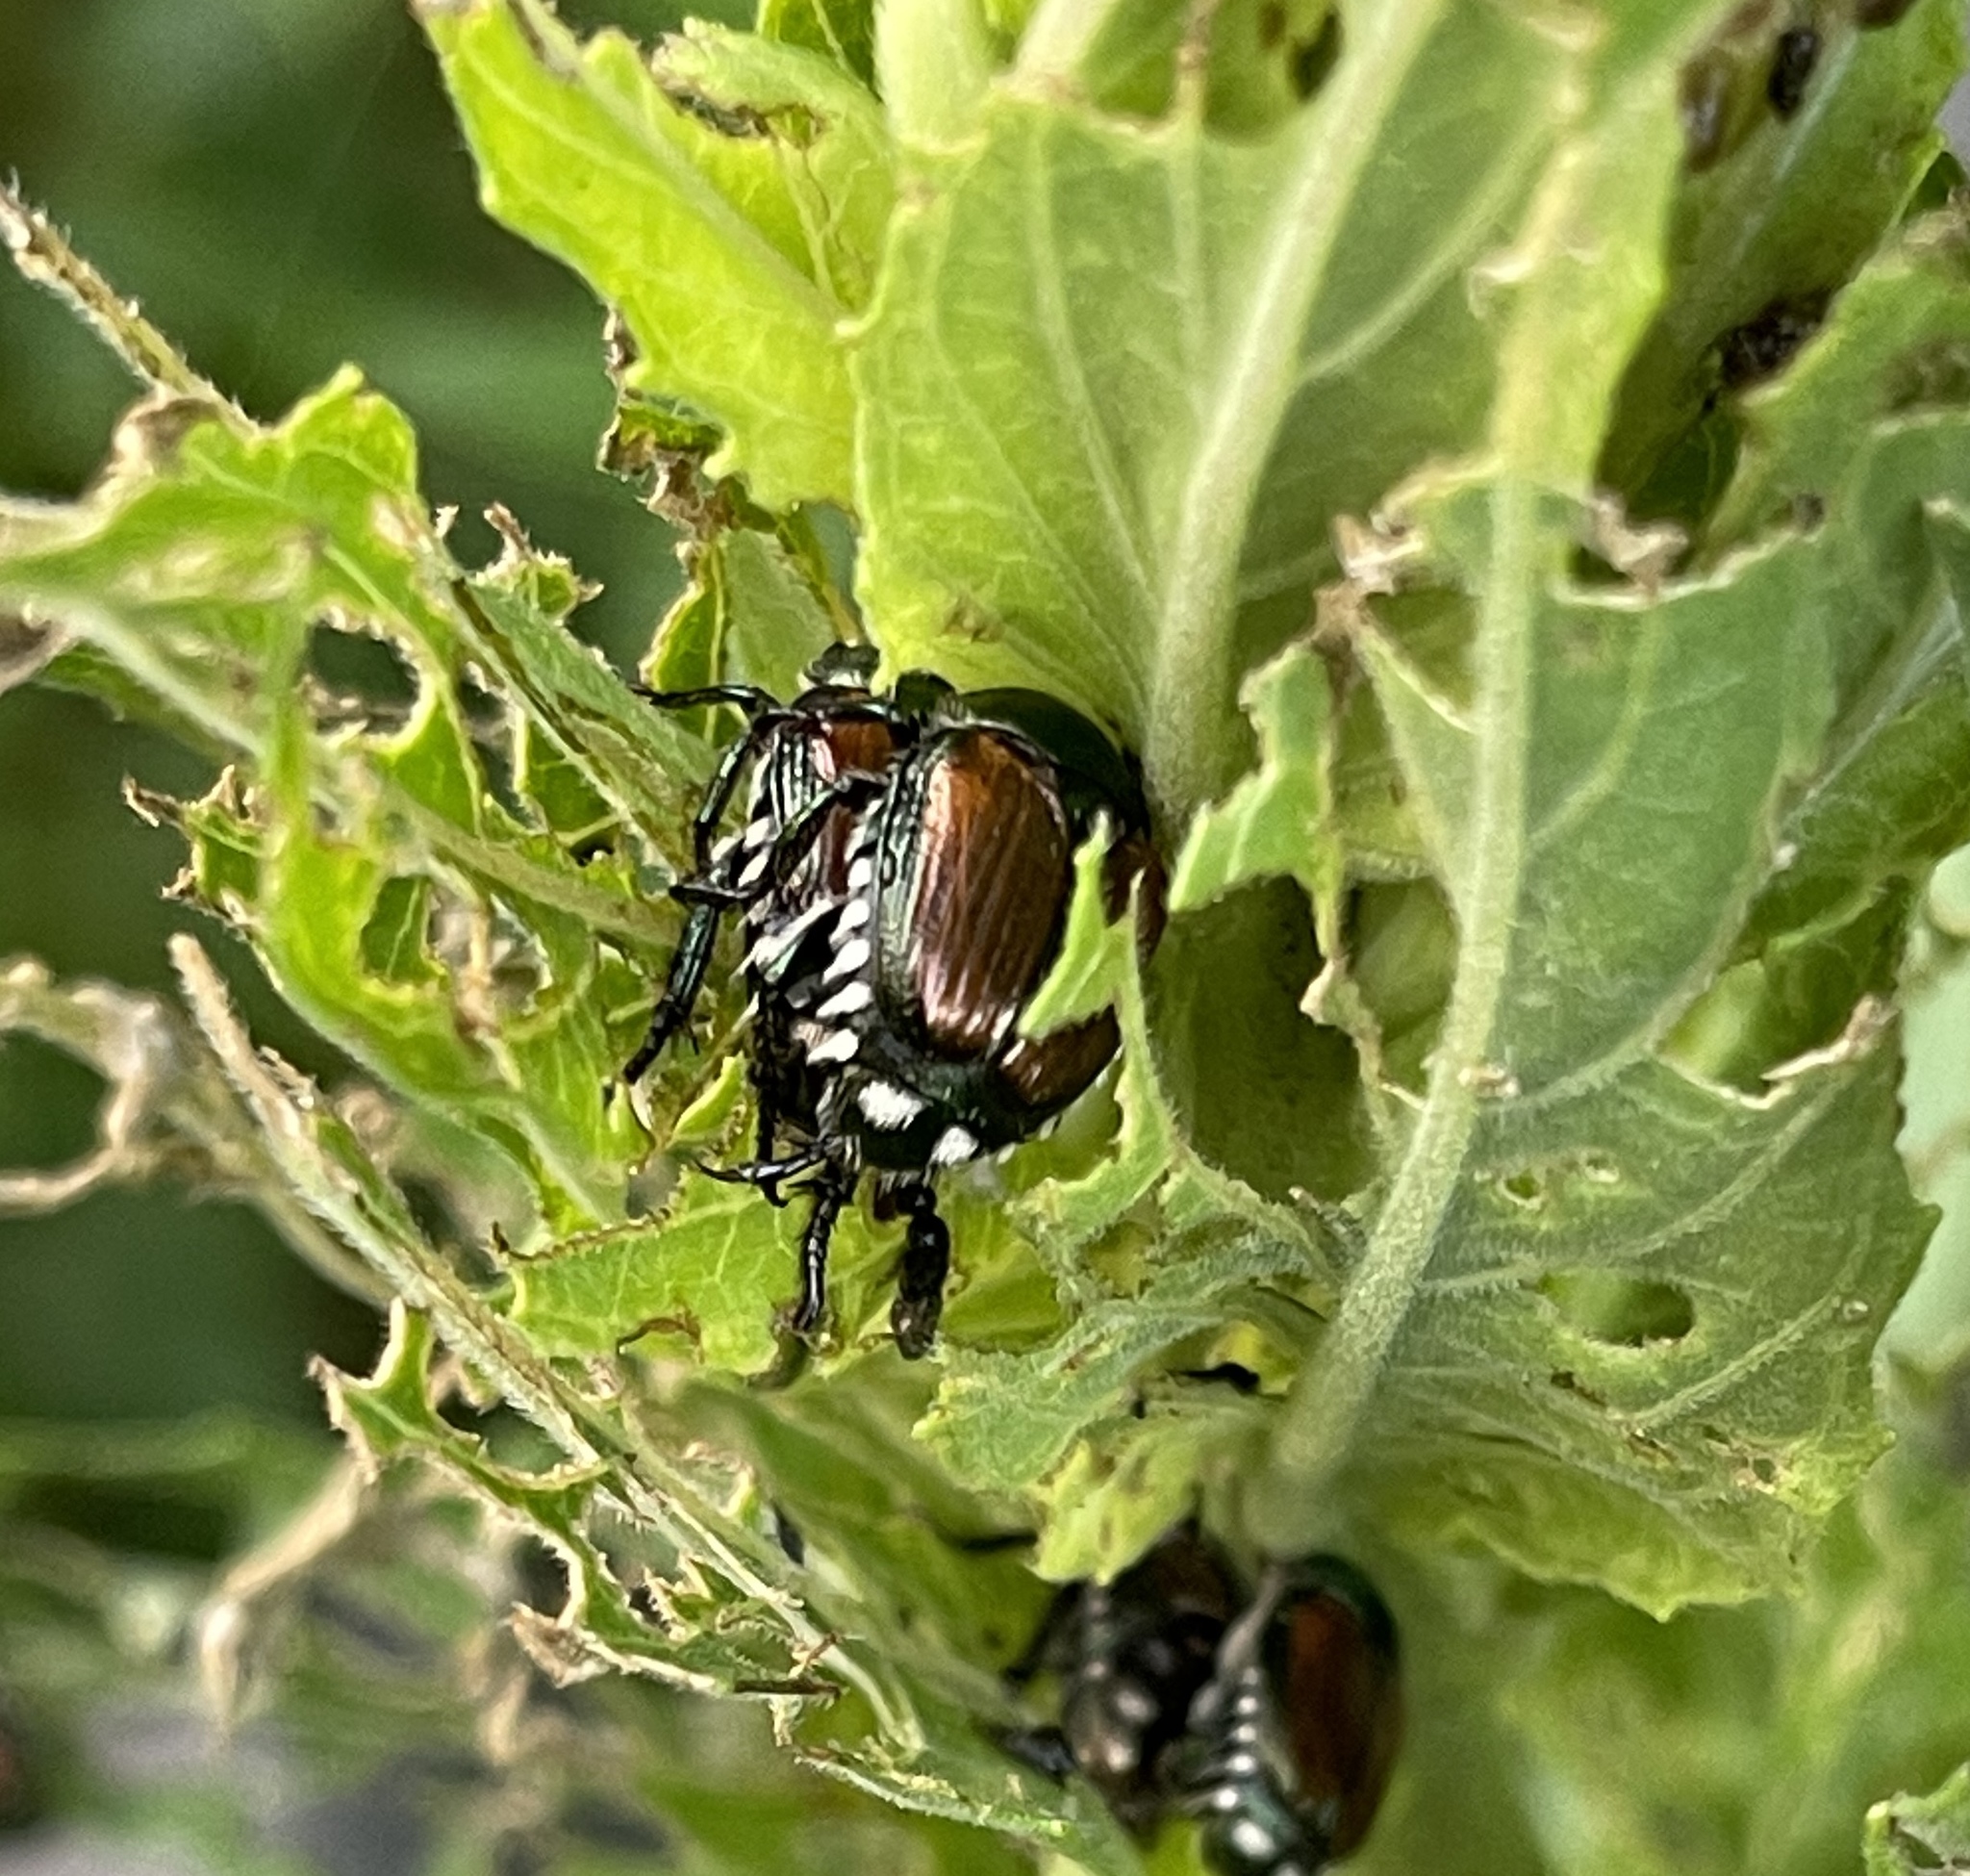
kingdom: Animalia
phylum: Arthropoda
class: Insecta
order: Coleoptera
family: Scarabaeidae
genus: Popillia
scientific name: Popillia japonica
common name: Japanese beetle
